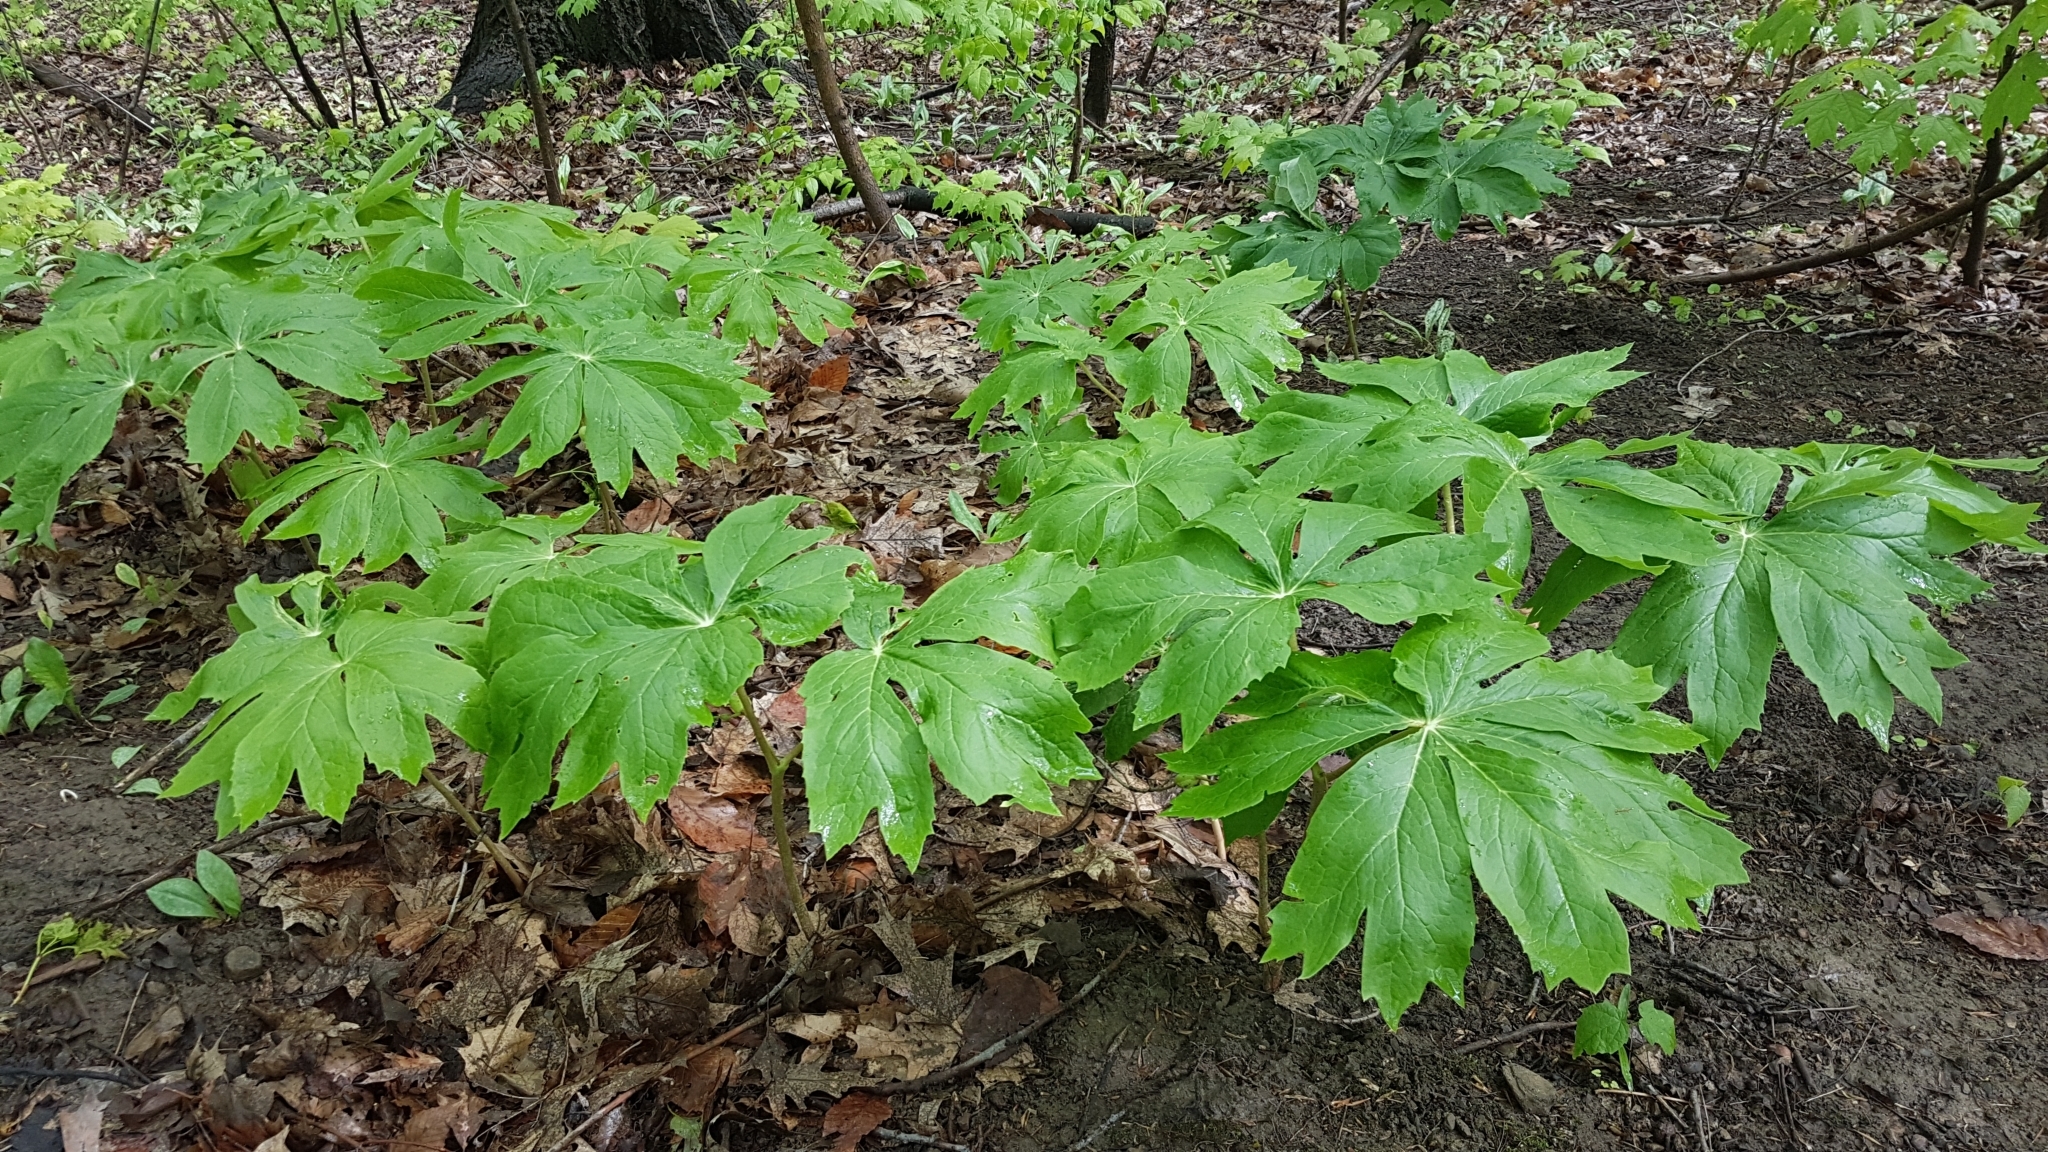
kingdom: Plantae
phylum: Tracheophyta
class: Magnoliopsida
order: Ranunculales
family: Berberidaceae
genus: Podophyllum
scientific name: Podophyllum peltatum
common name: Wild mandrake
